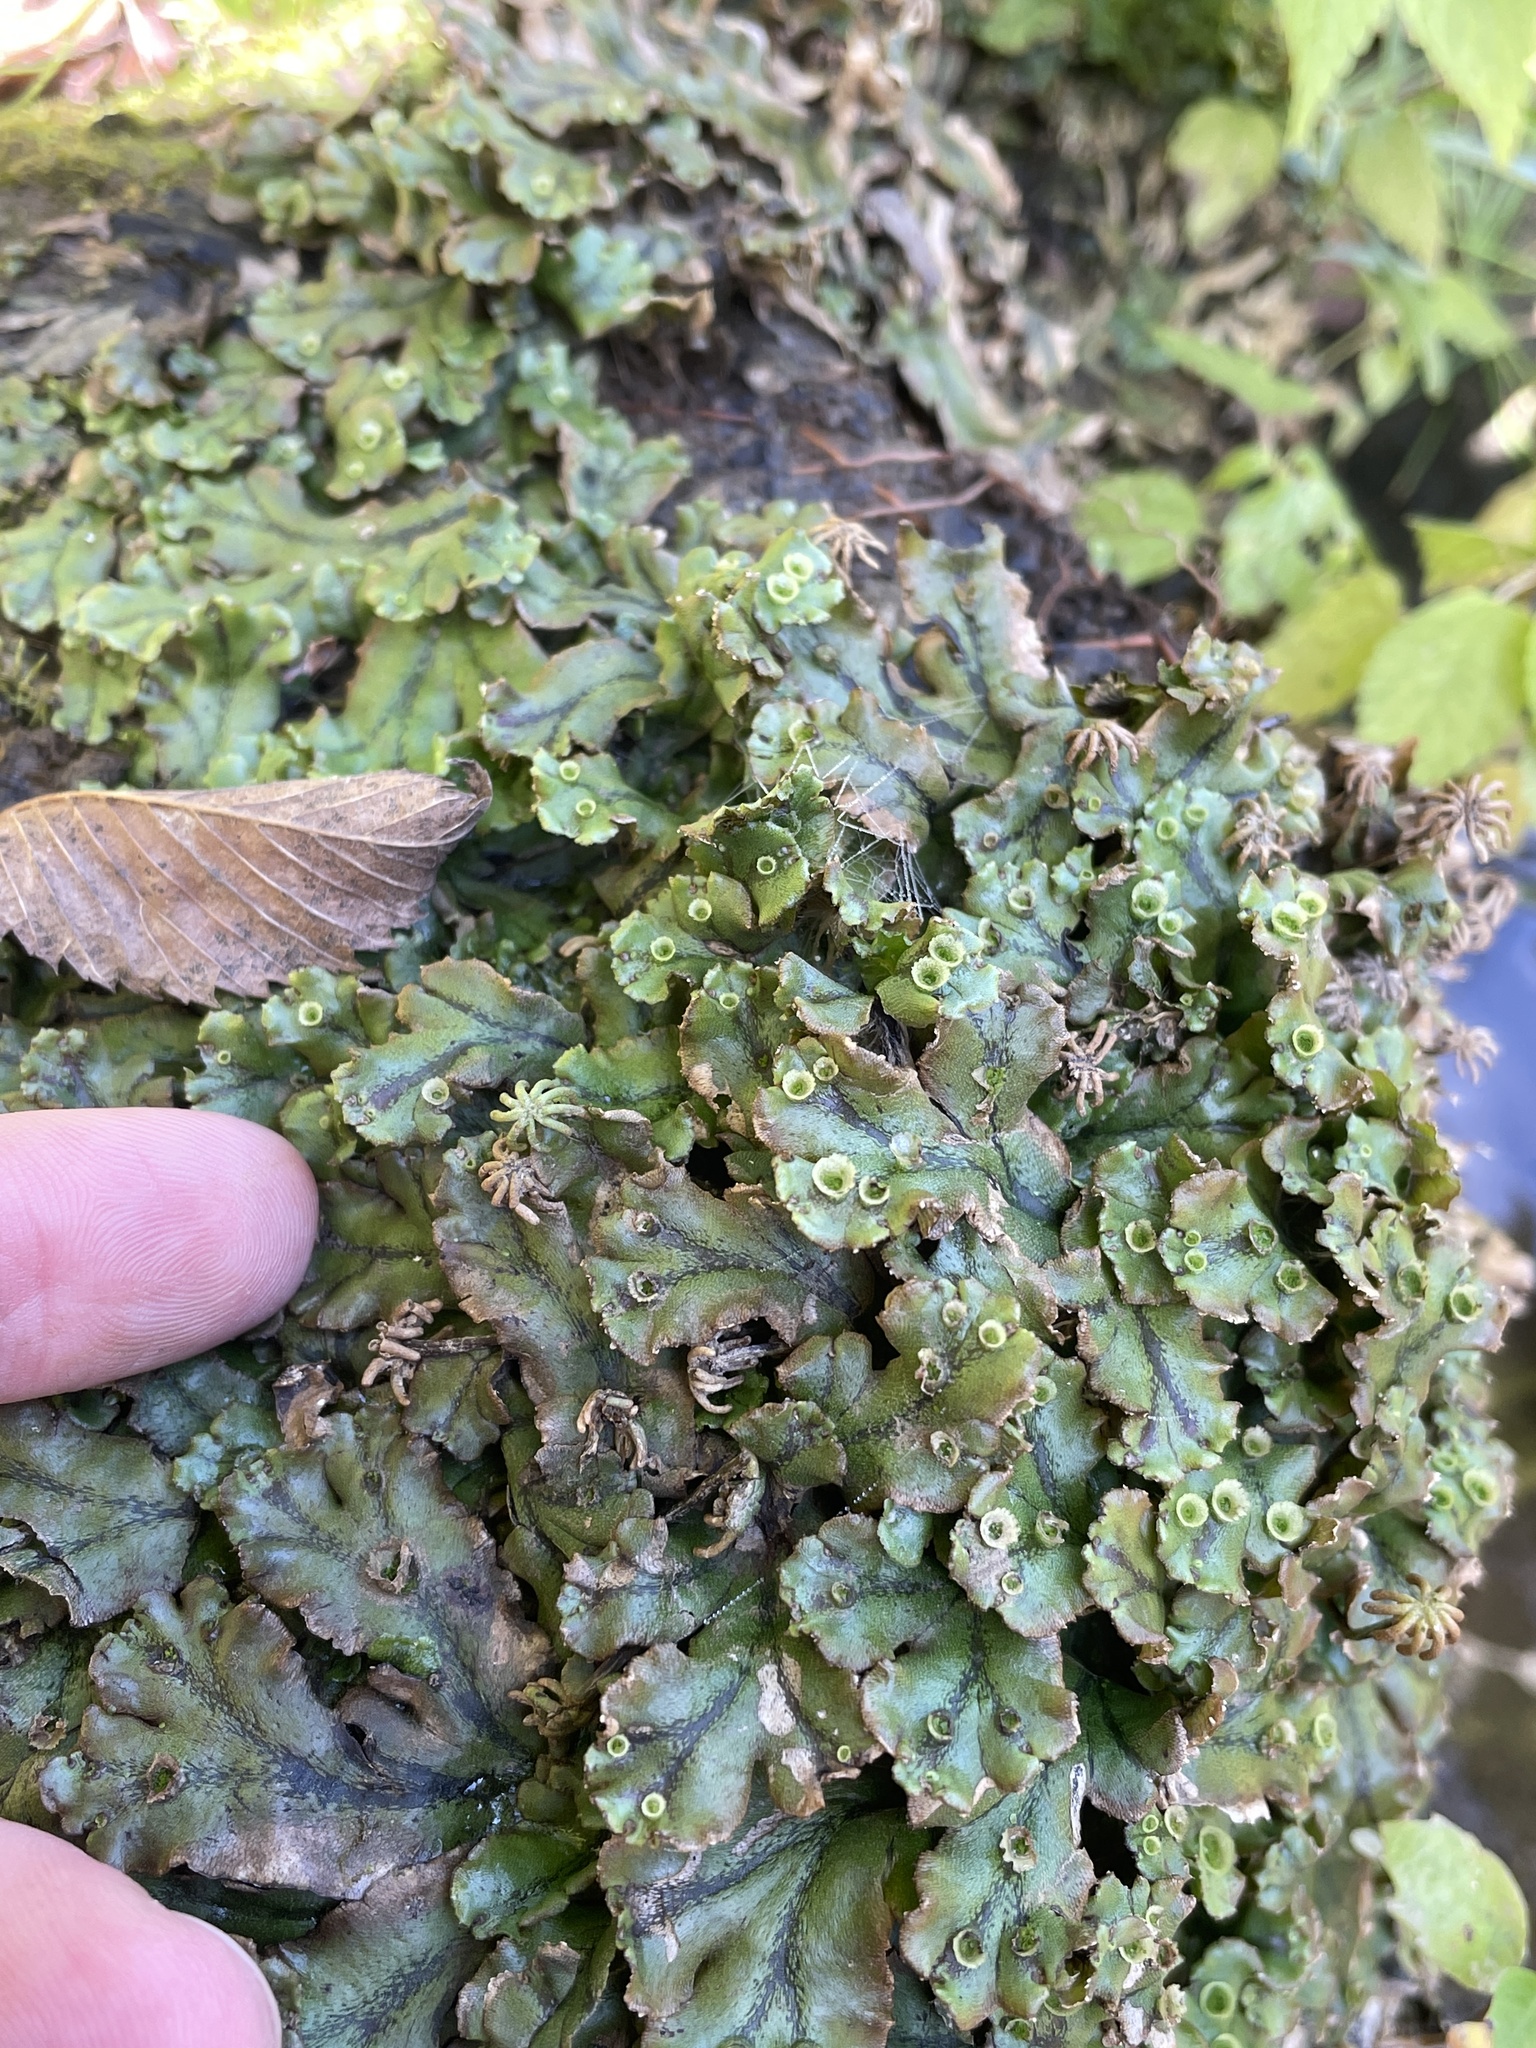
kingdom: Plantae
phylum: Marchantiophyta
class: Marchantiopsida
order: Marchantiales
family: Marchantiaceae
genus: Marchantia
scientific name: Marchantia polymorpha
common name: Common liverwort
